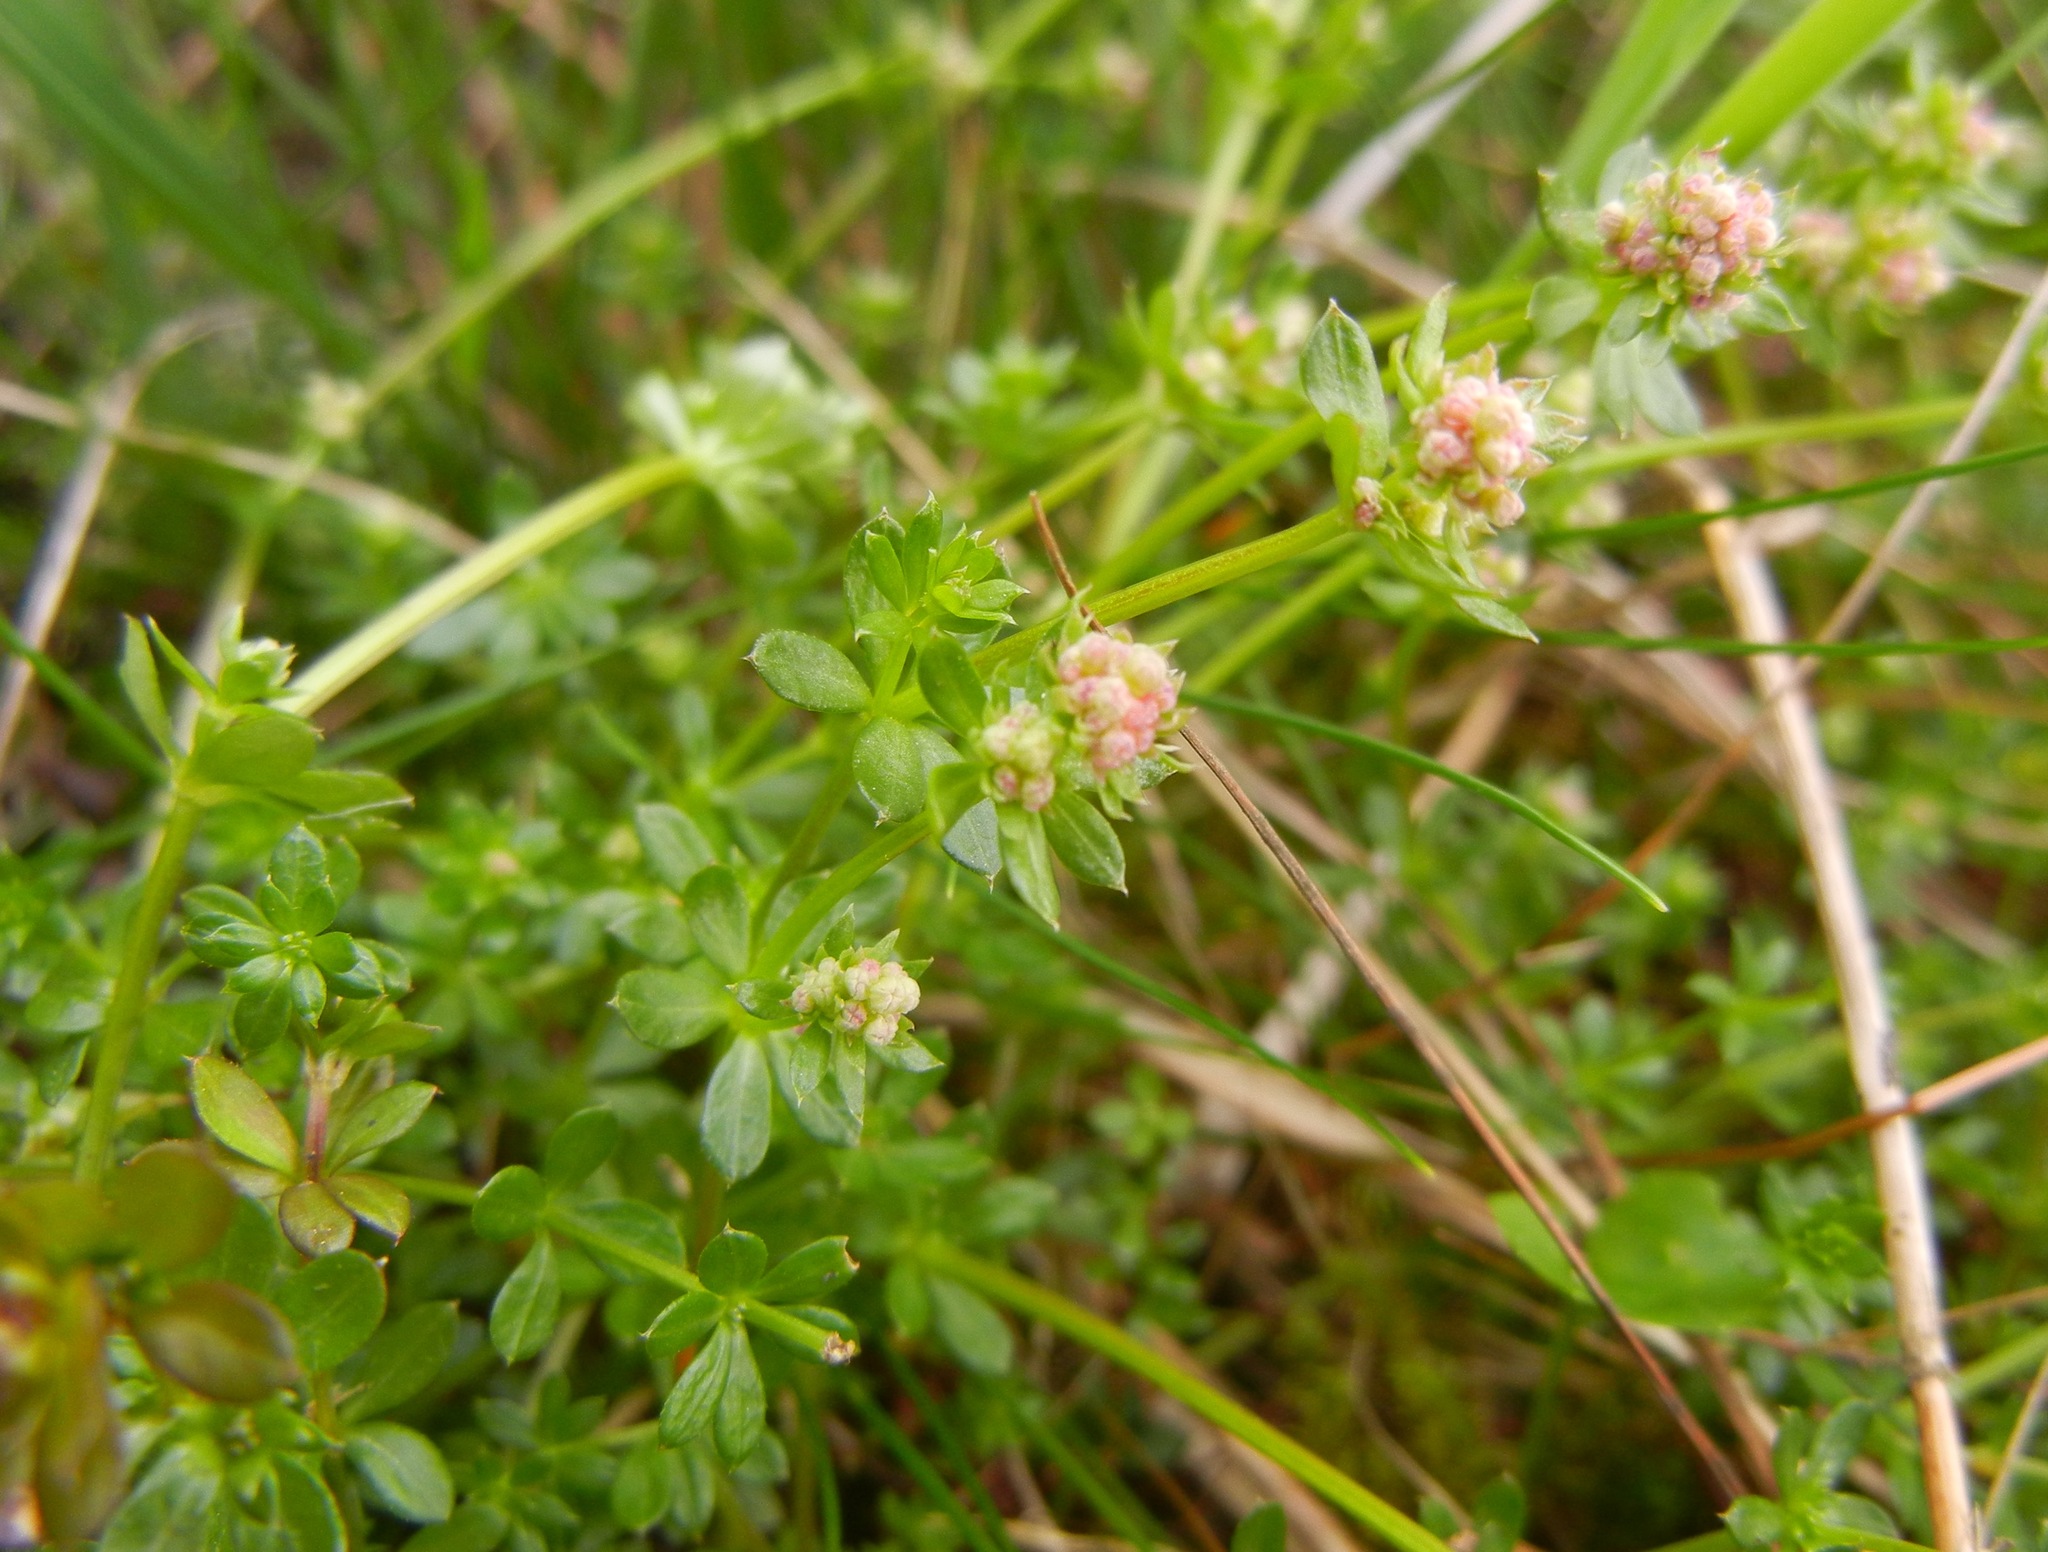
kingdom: Plantae
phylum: Tracheophyta
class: Magnoliopsida
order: Gentianales
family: Rubiaceae
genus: Galium
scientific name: Galium saxatile
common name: Heath bedstraw
